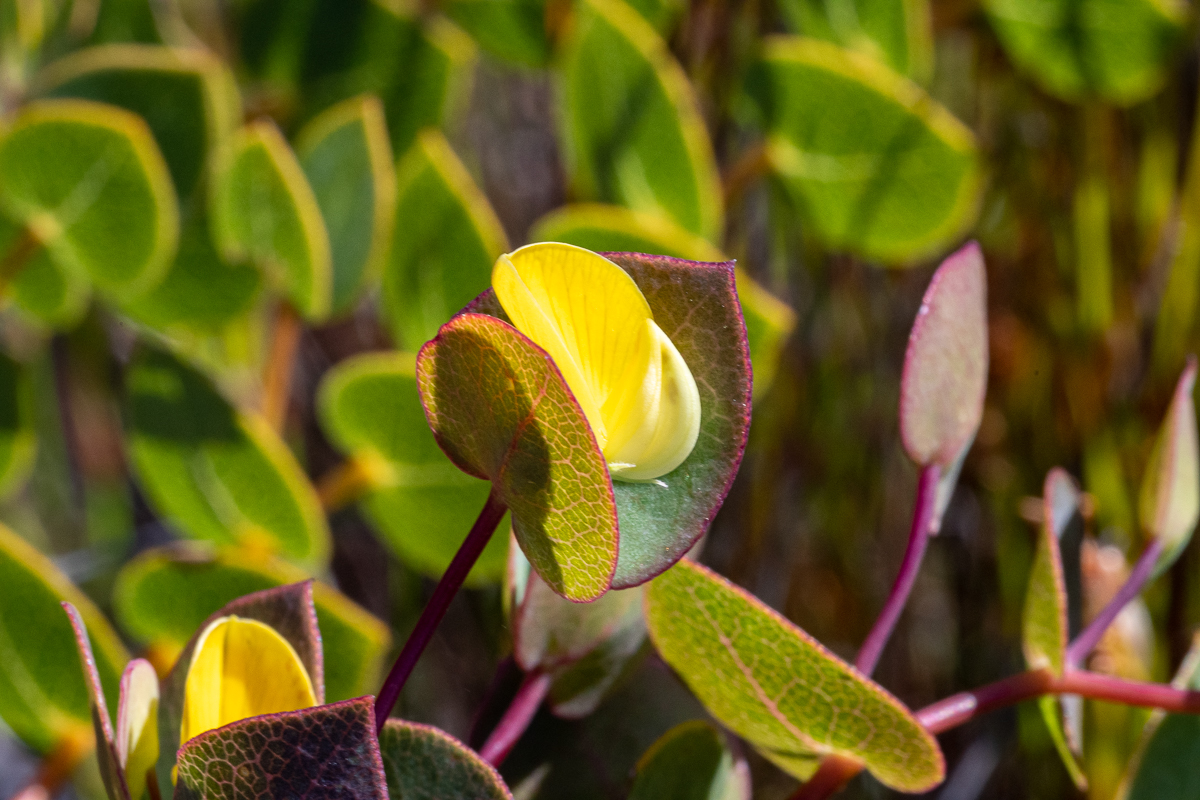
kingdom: Plantae
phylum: Tracheophyta
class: Magnoliopsida
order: Fabales
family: Fabaceae
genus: Rafnia
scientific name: Rafnia acuminata
